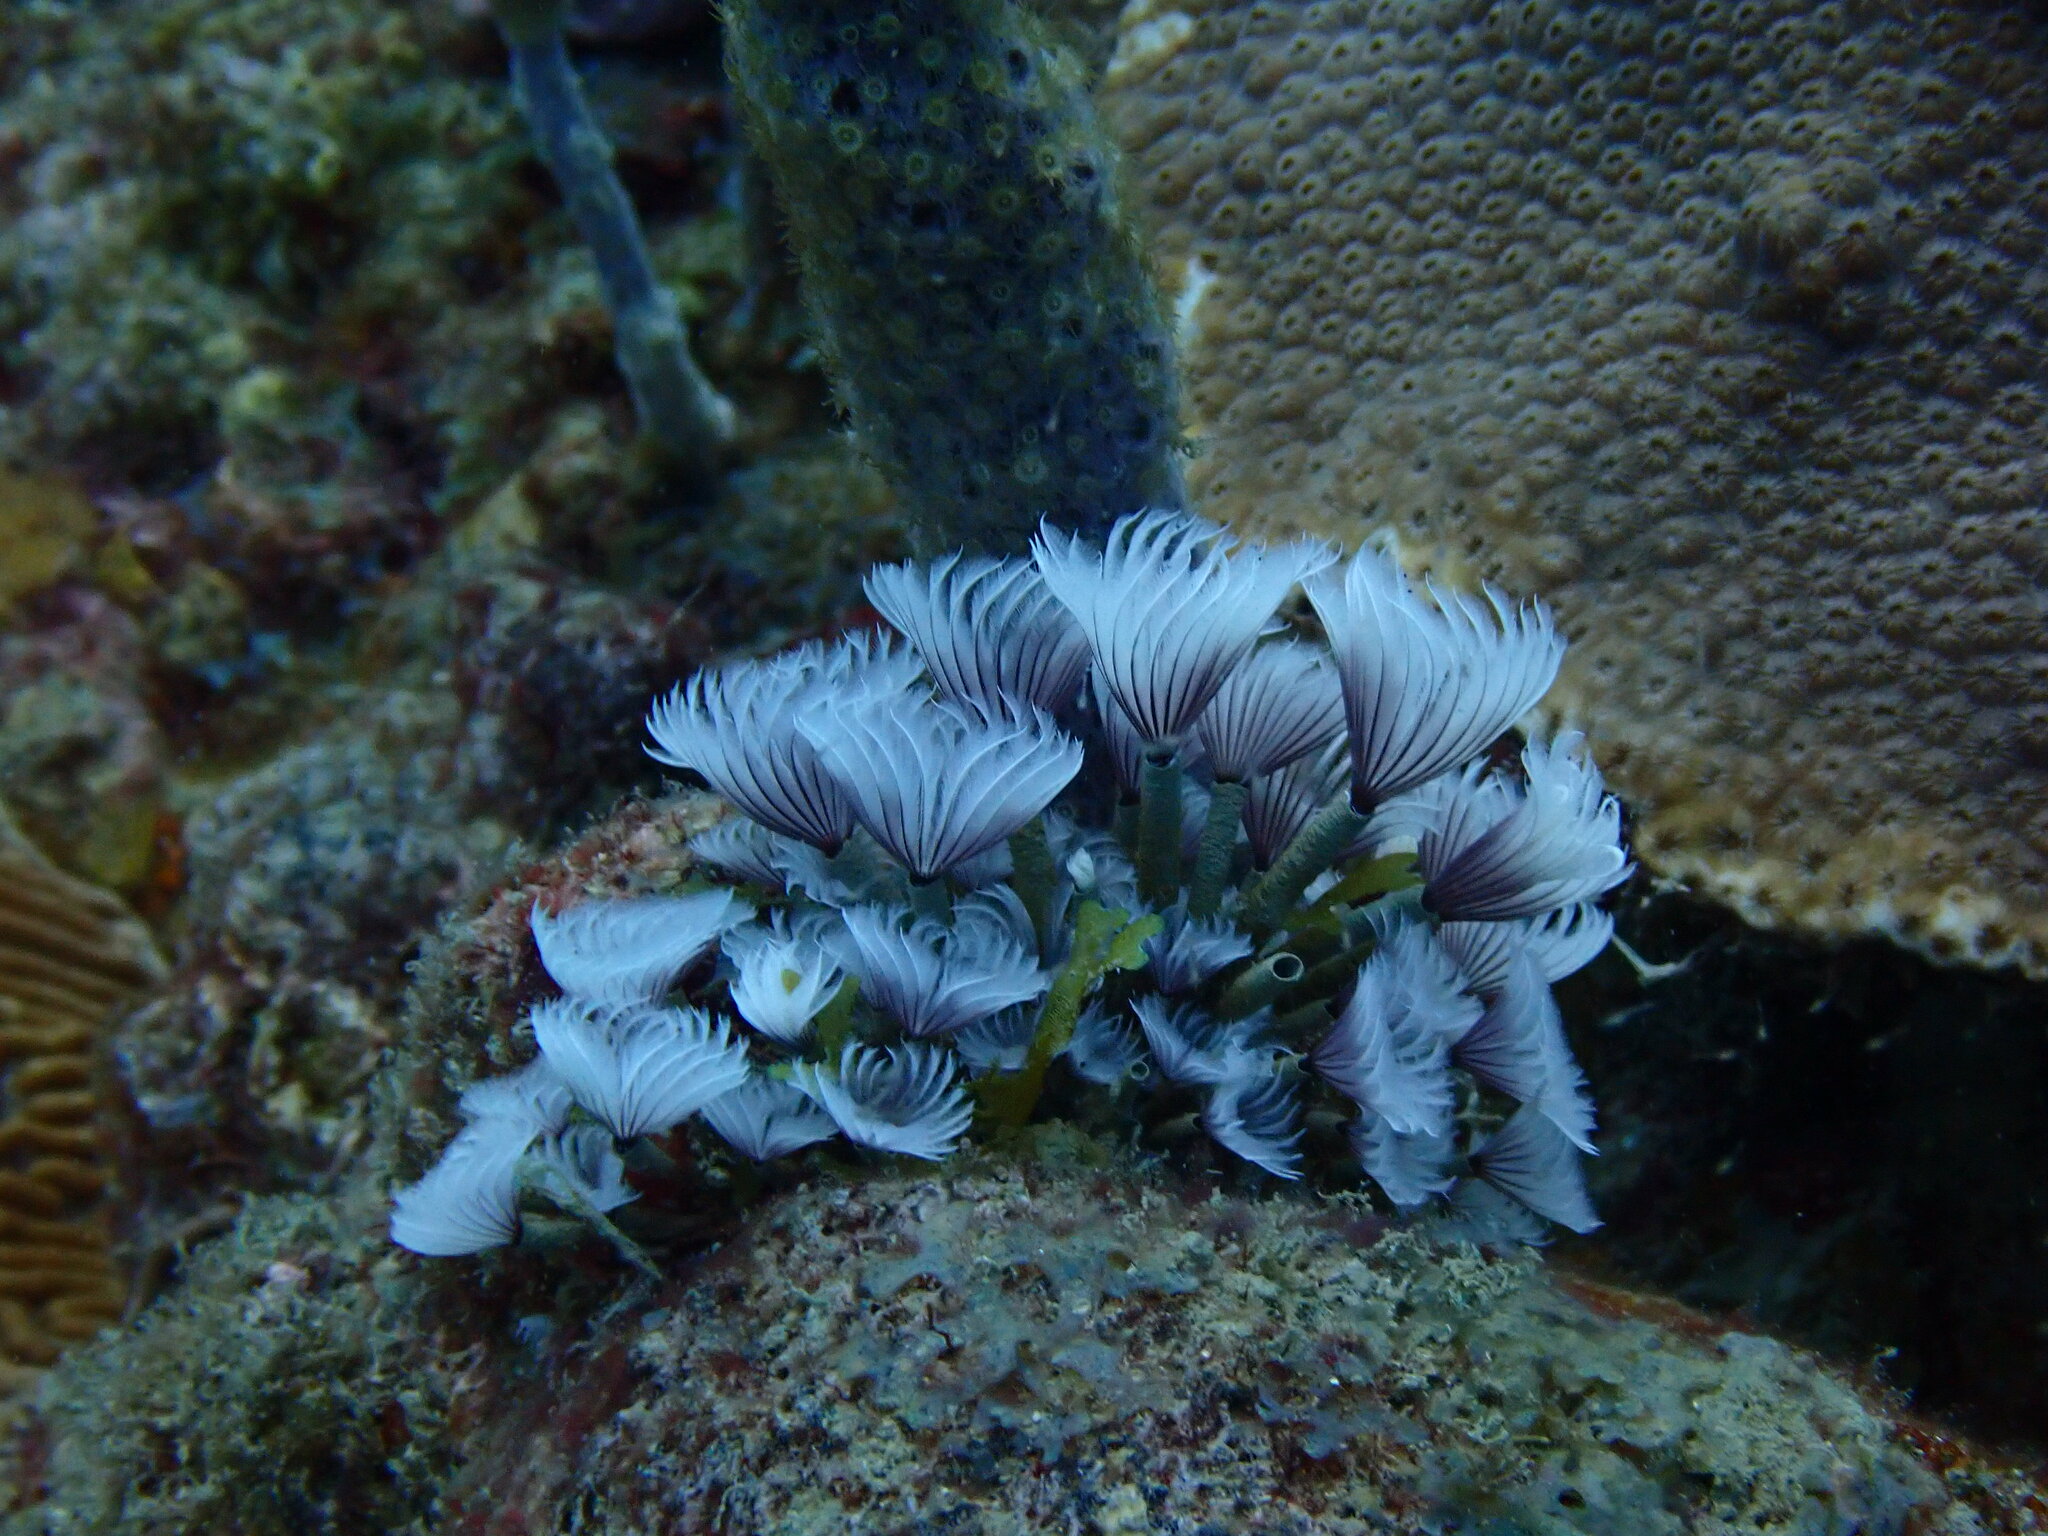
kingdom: Animalia
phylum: Annelida
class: Polychaeta
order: Sabellida
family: Sabellidae
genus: Bispira
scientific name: Bispira brunnea
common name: Social feather duster
